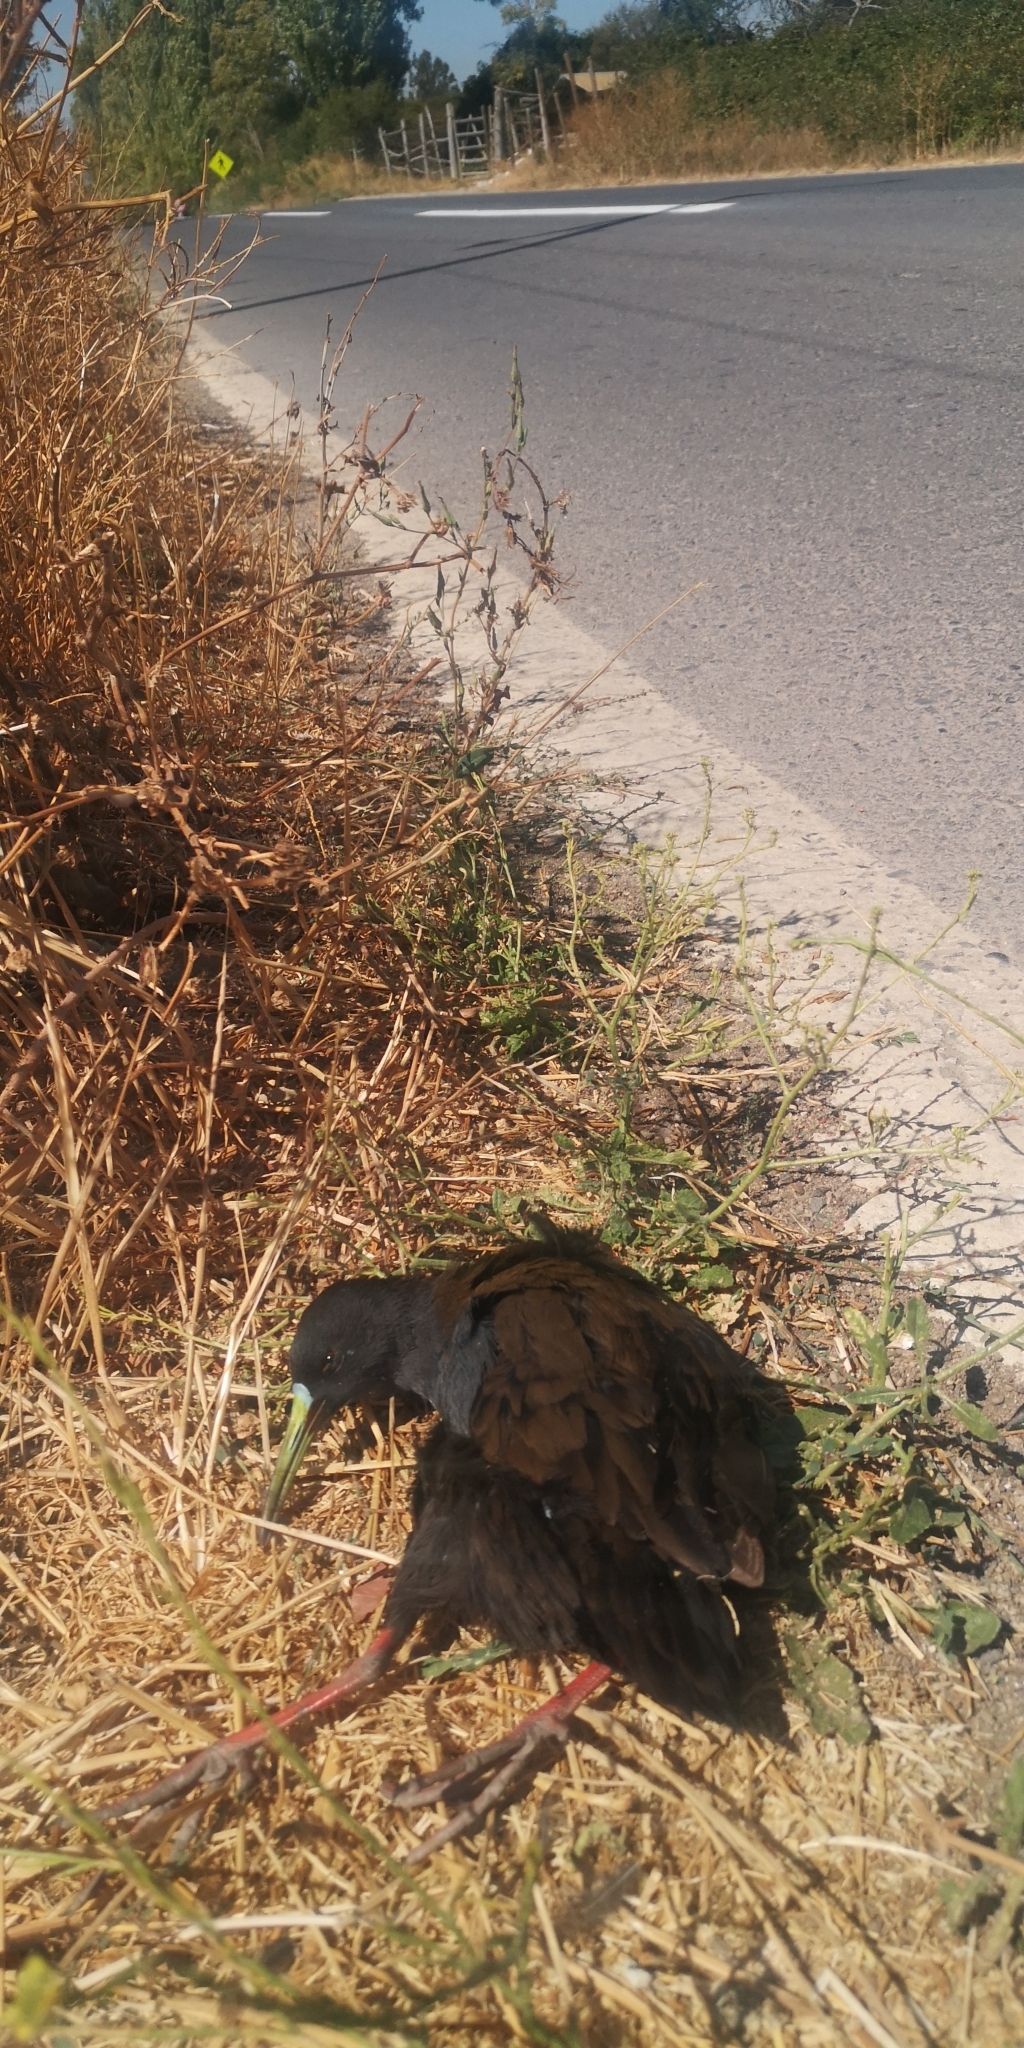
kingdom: Animalia
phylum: Chordata
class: Aves
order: Gruiformes
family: Rallidae
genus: Pardirallus
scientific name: Pardirallus sanguinolentus
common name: Plumbeous rail
